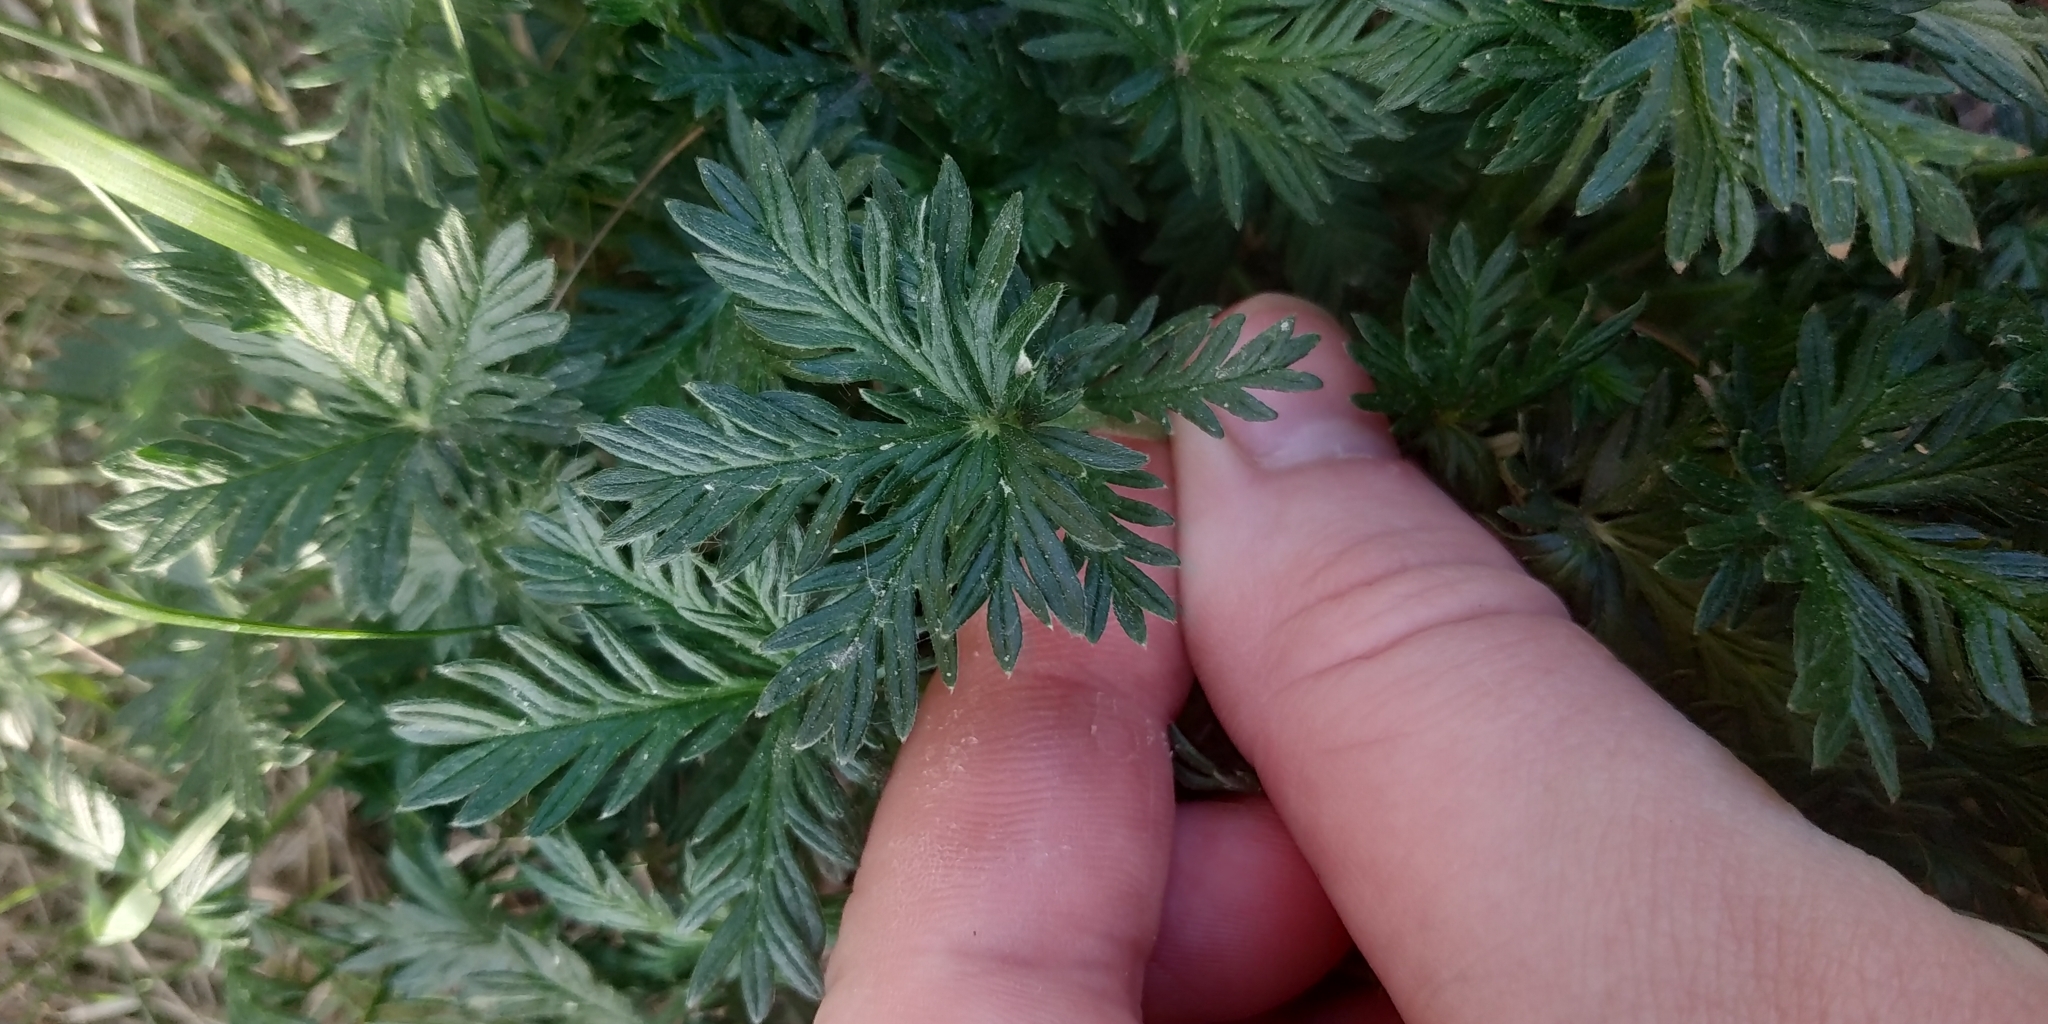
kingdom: Plantae
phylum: Tracheophyta
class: Magnoliopsida
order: Rosales
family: Rosaceae
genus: Potentilla
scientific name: Potentilla angarensis
